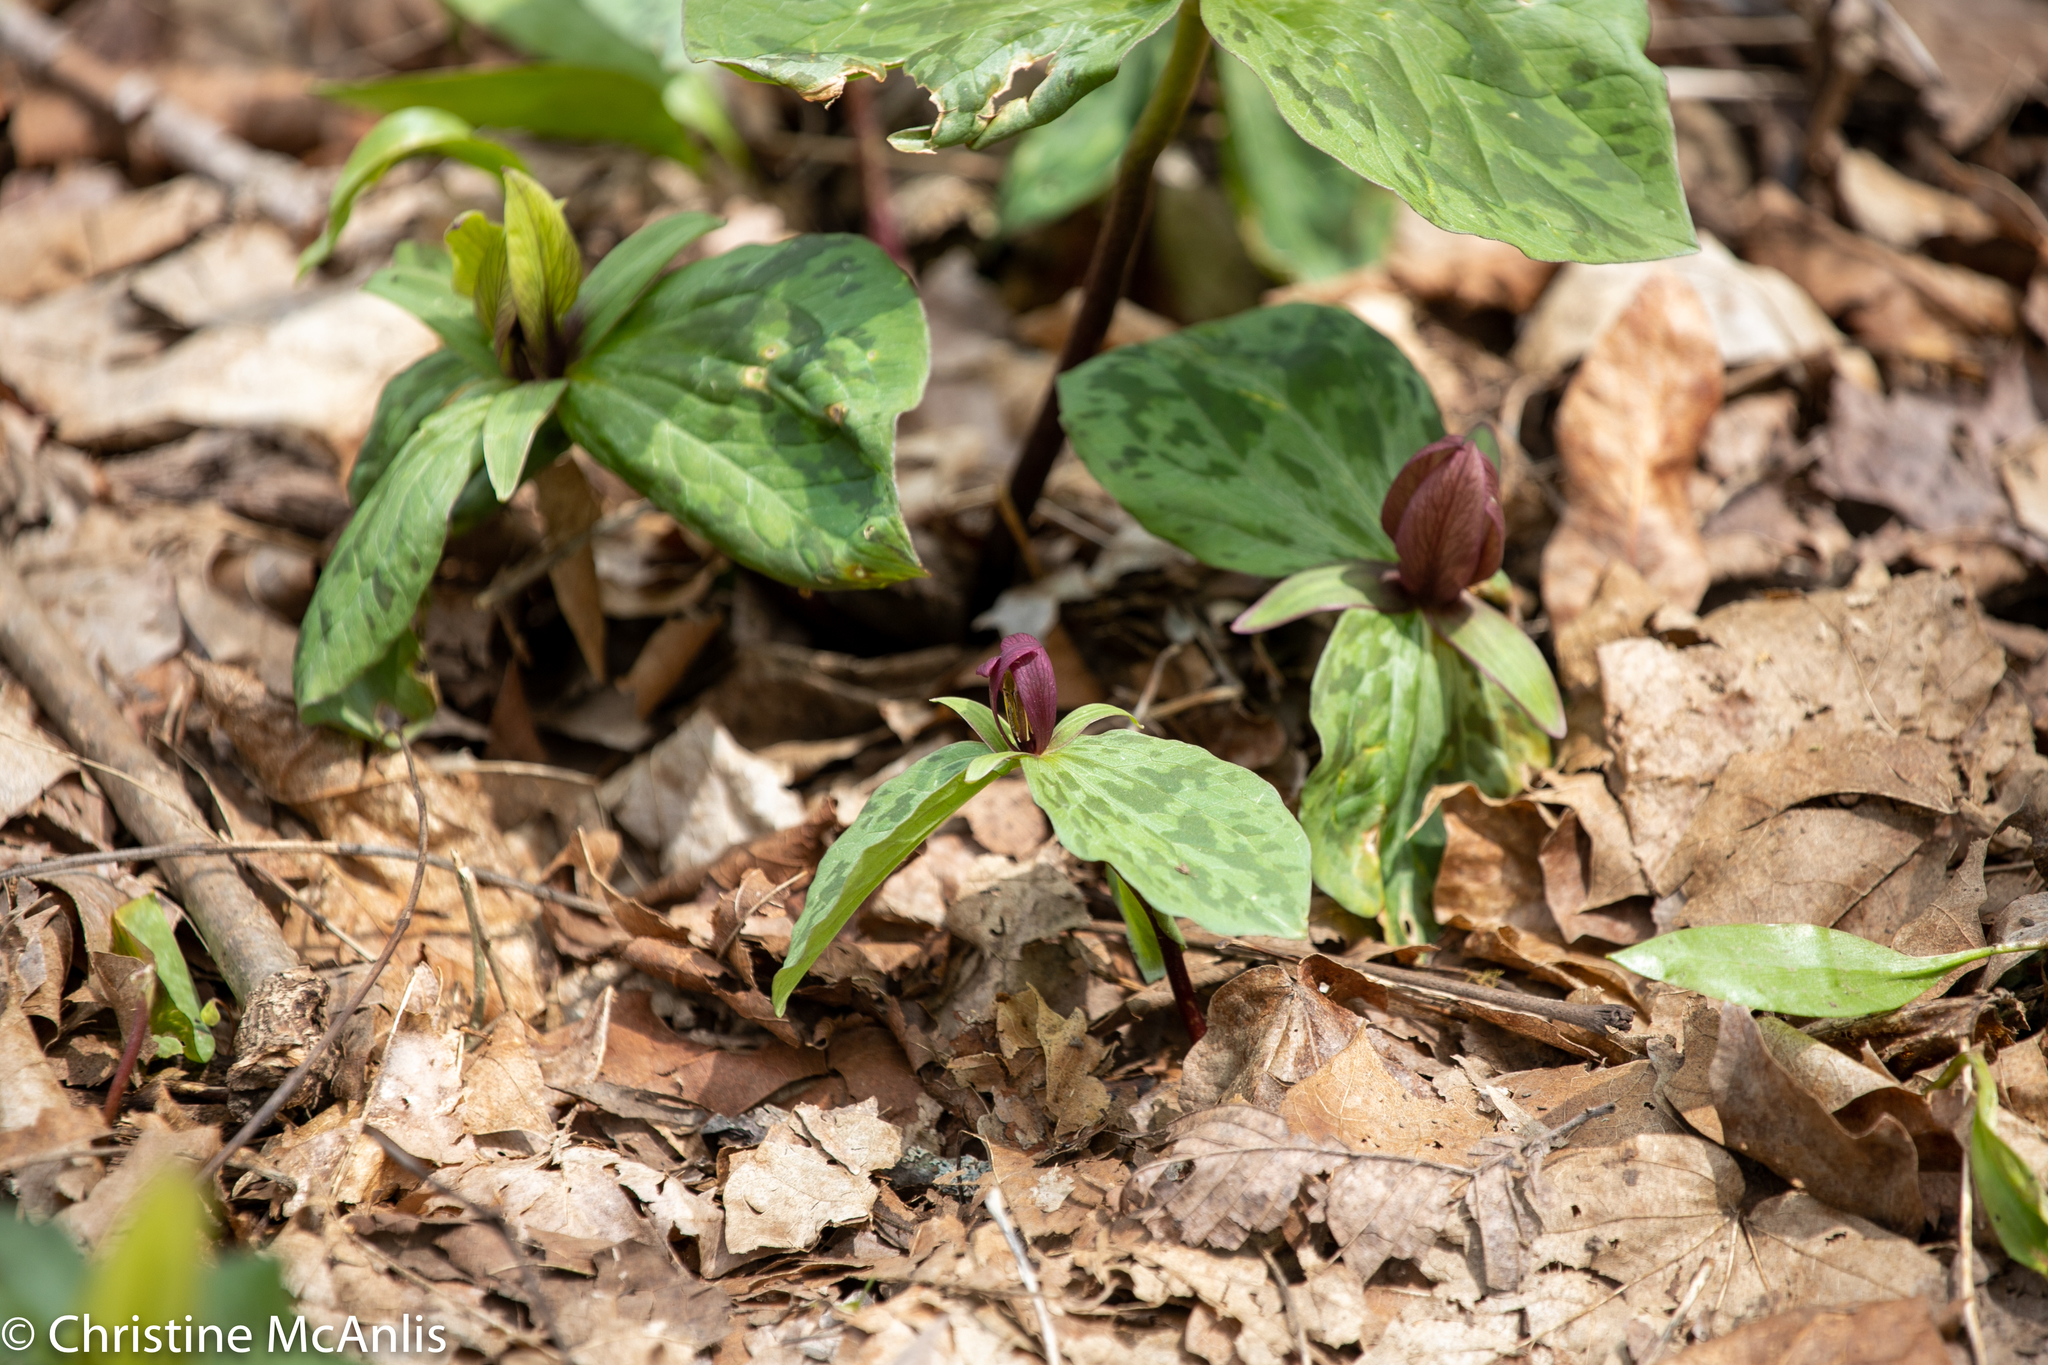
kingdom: Plantae
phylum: Tracheophyta
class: Liliopsida
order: Liliales
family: Melanthiaceae
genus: Trillium
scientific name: Trillium sessile
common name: Sessile trillium
